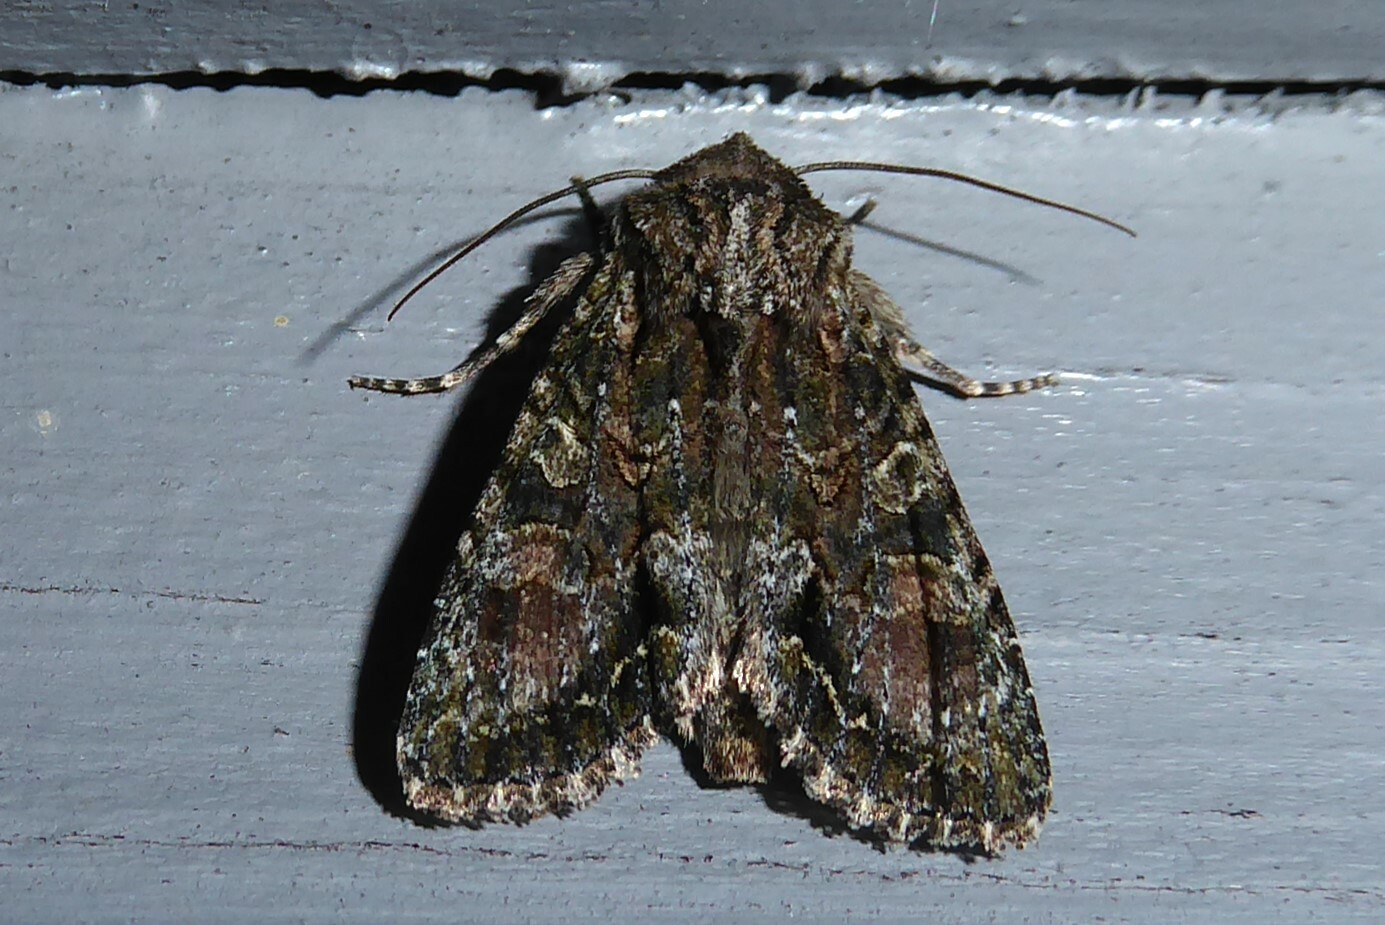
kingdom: Animalia
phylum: Arthropoda
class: Insecta
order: Lepidoptera
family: Noctuidae
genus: Ichneutica
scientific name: Ichneutica mutans
